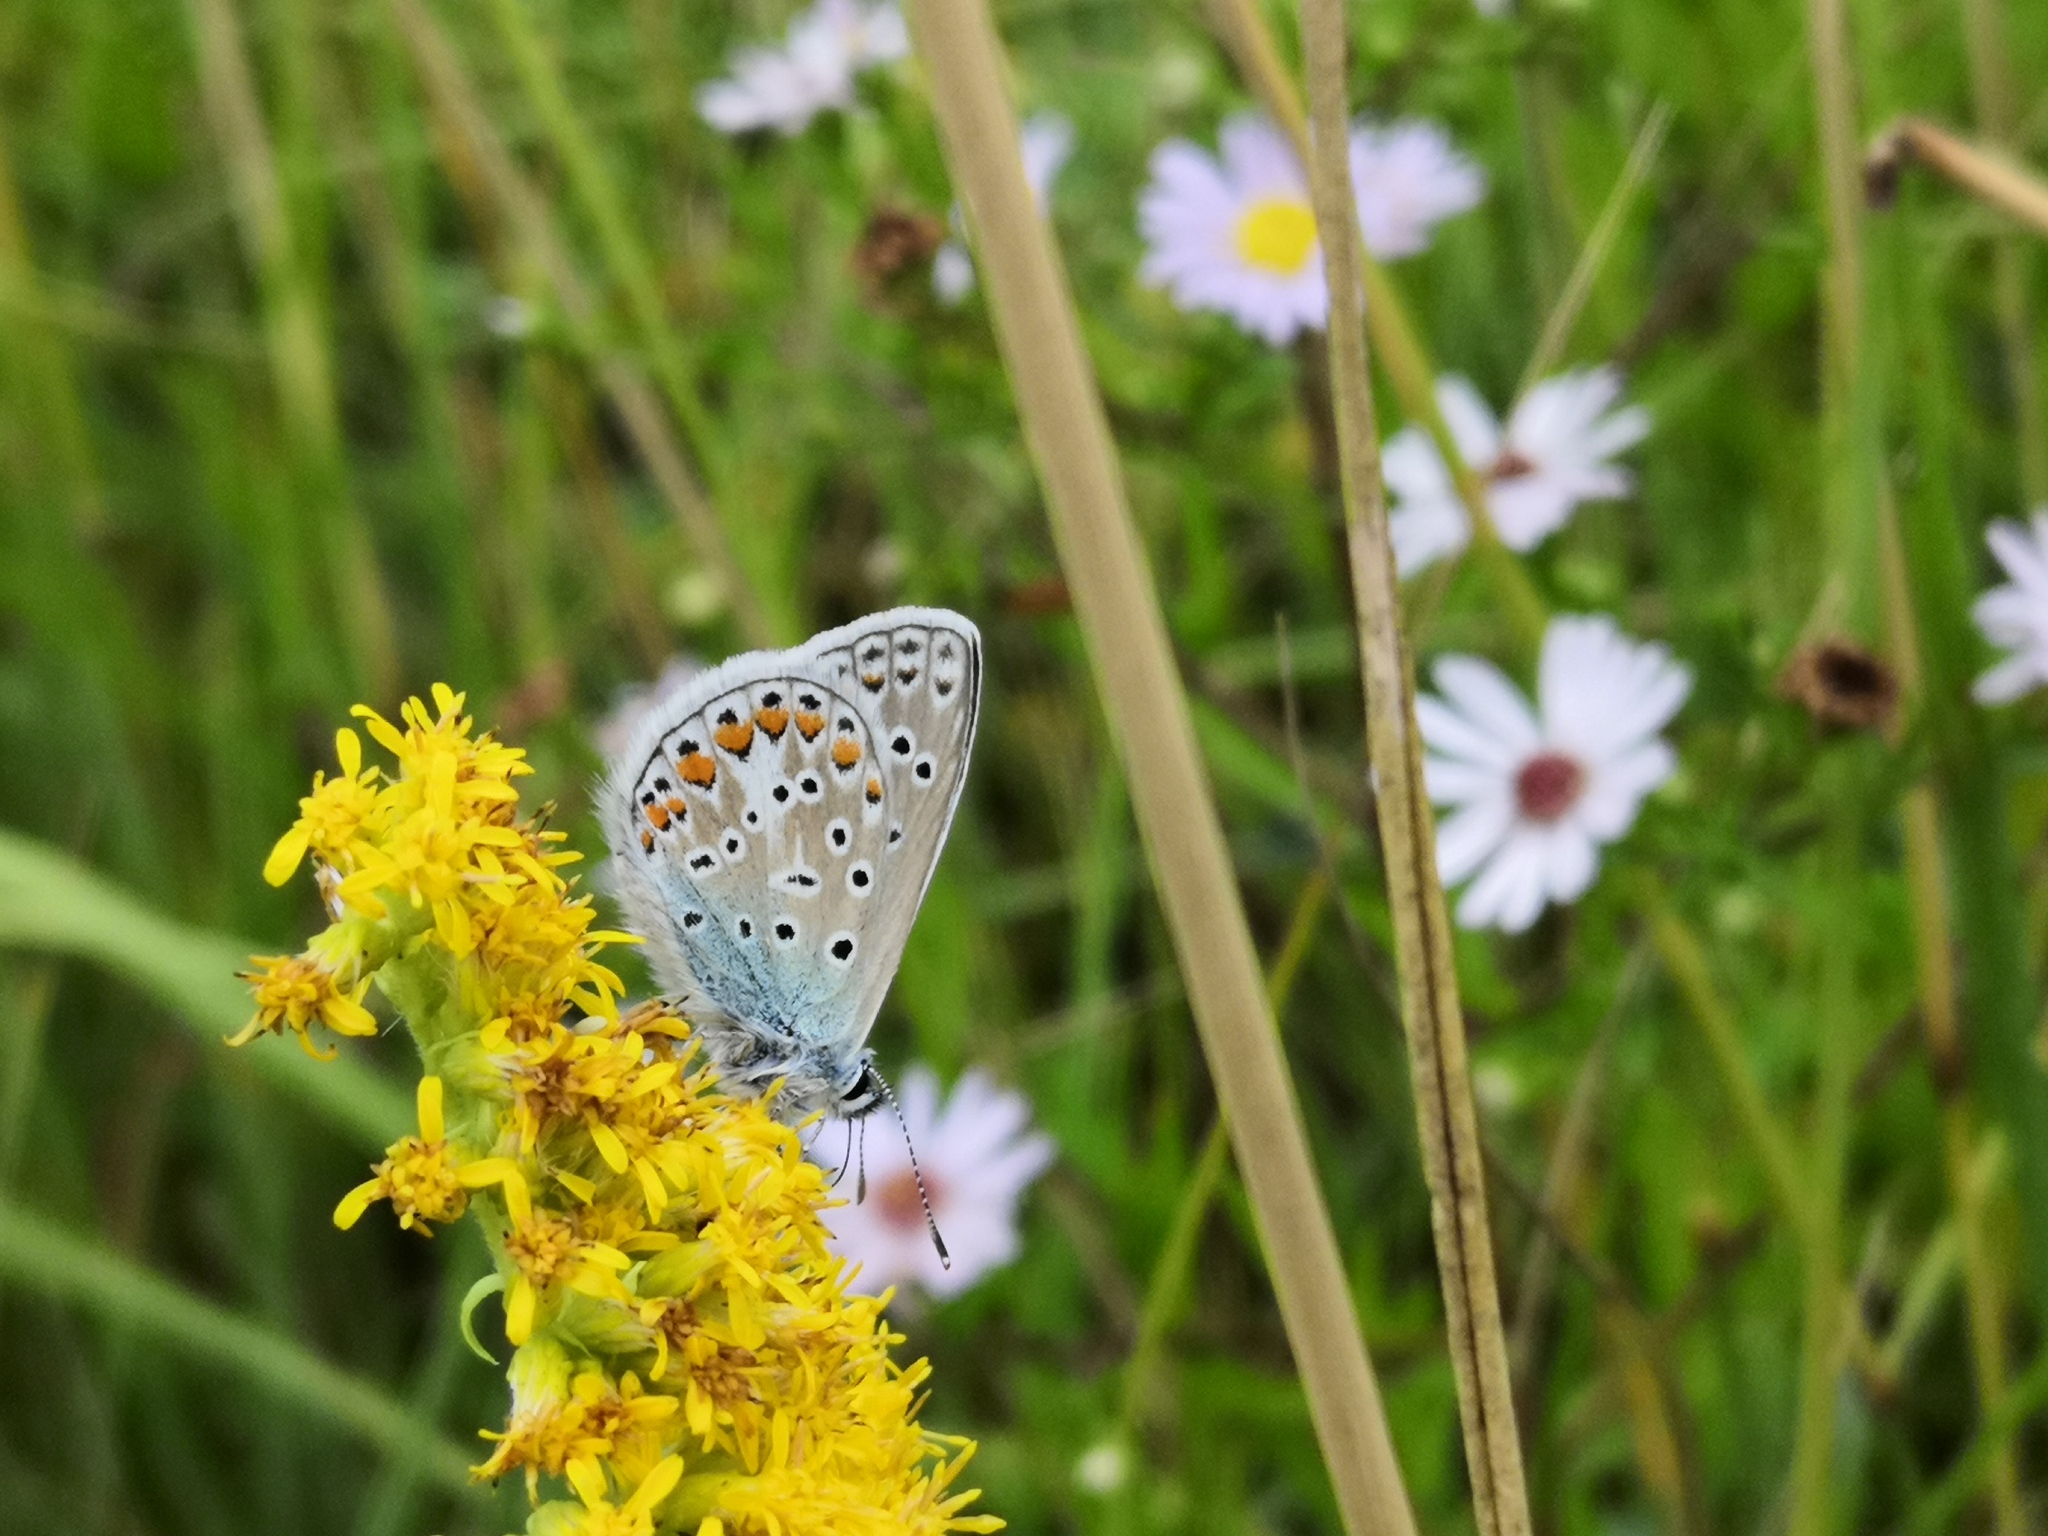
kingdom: Animalia
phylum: Arthropoda
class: Insecta
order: Lepidoptera
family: Lycaenidae
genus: Polyommatus
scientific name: Polyommatus icarus
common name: Common blue
